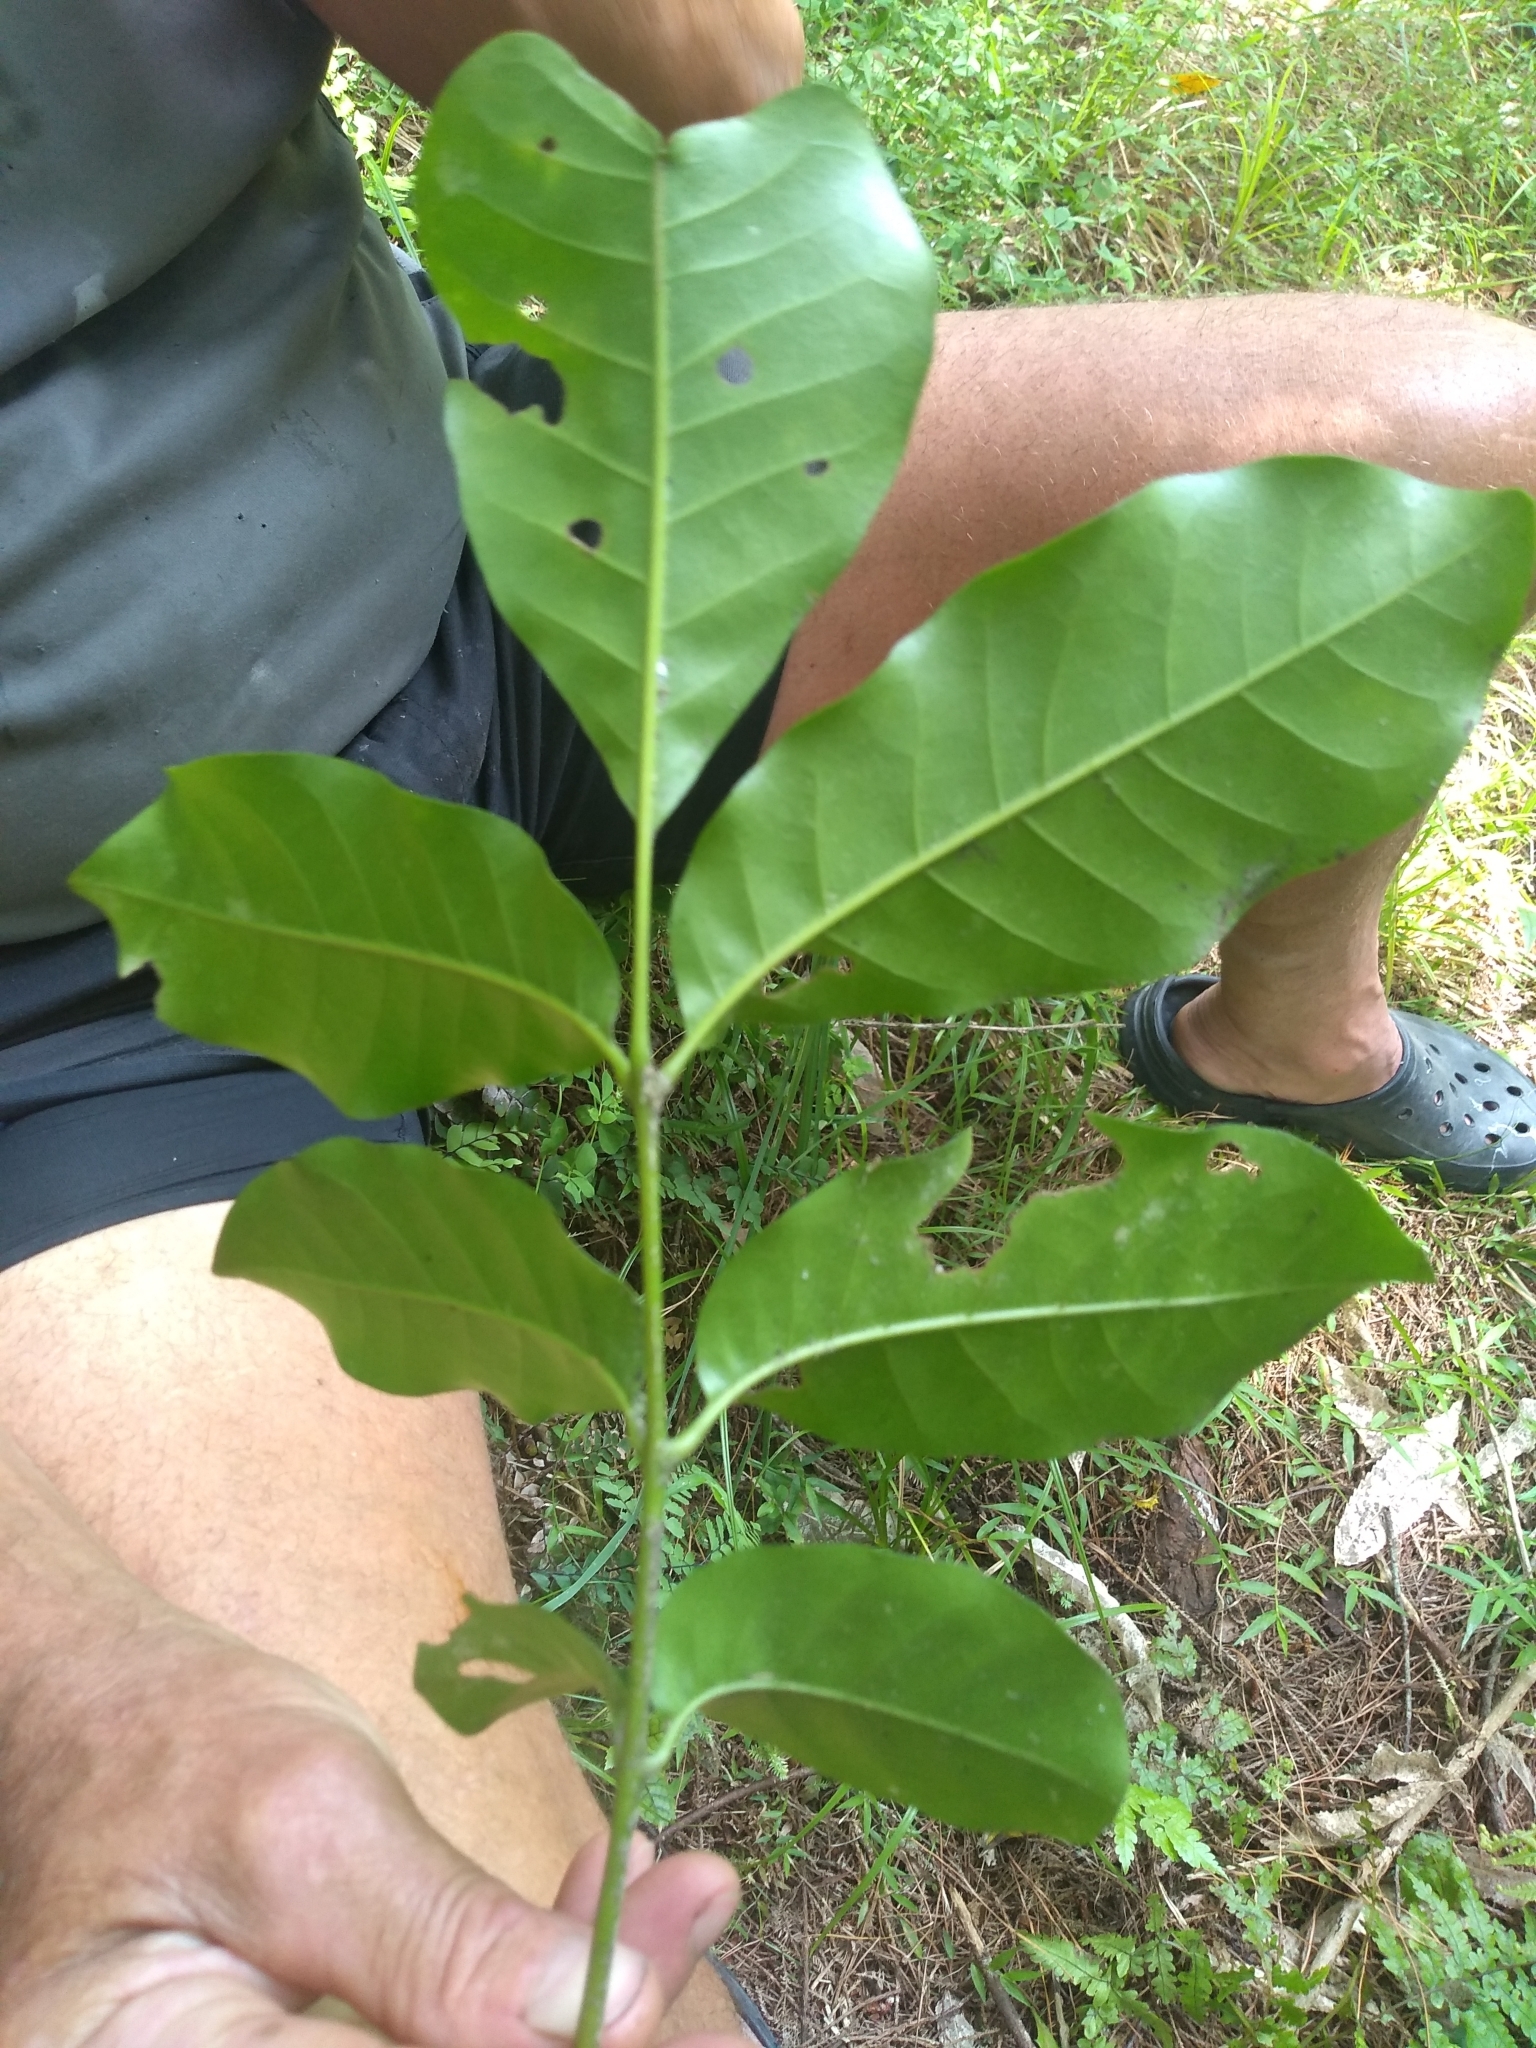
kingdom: Plantae
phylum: Tracheophyta
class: Magnoliopsida
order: Sapindales
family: Meliaceae
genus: Didymocheton
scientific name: Didymocheton spectabilis
